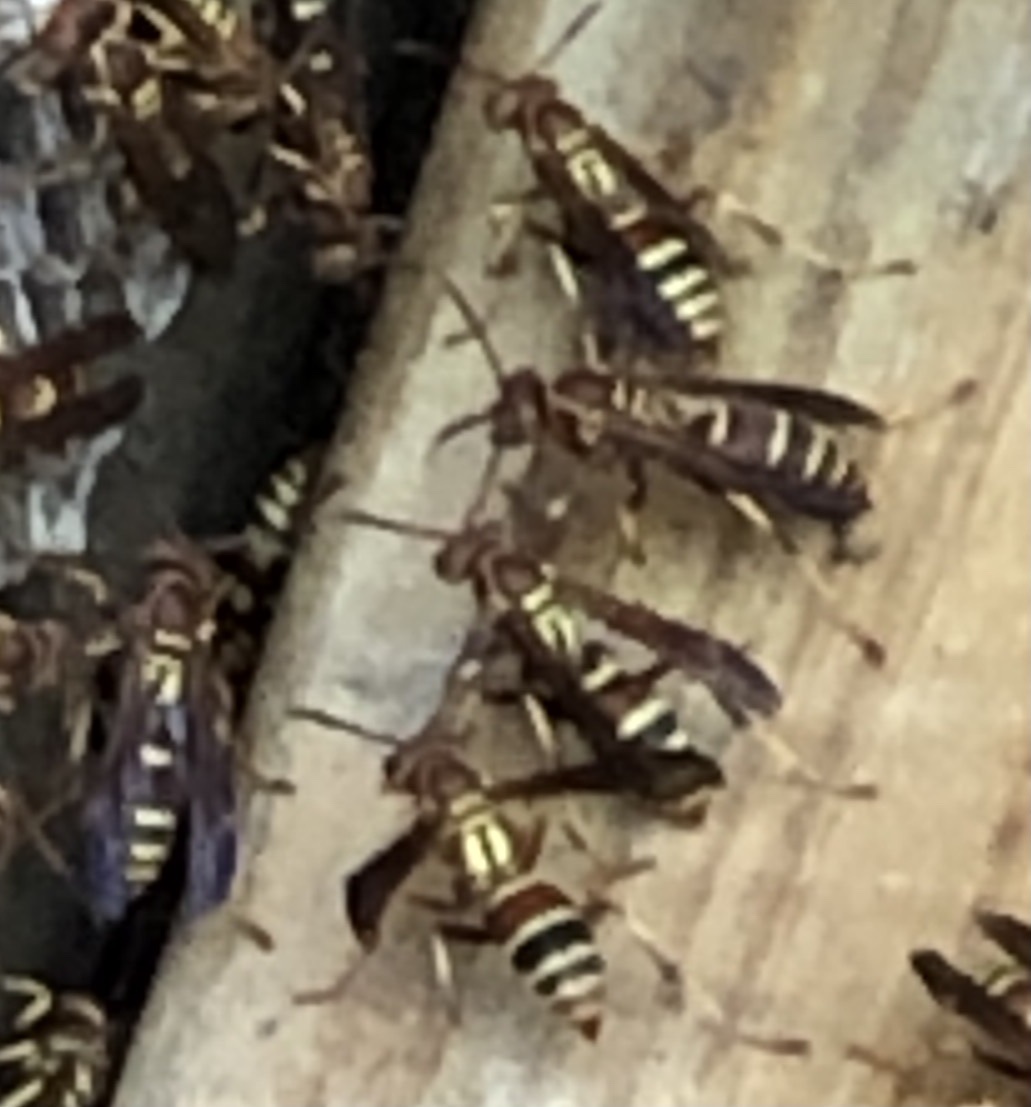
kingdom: Animalia
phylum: Arthropoda
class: Insecta
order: Hymenoptera
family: Eumenidae
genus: Polistes
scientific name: Polistes dorsalis
